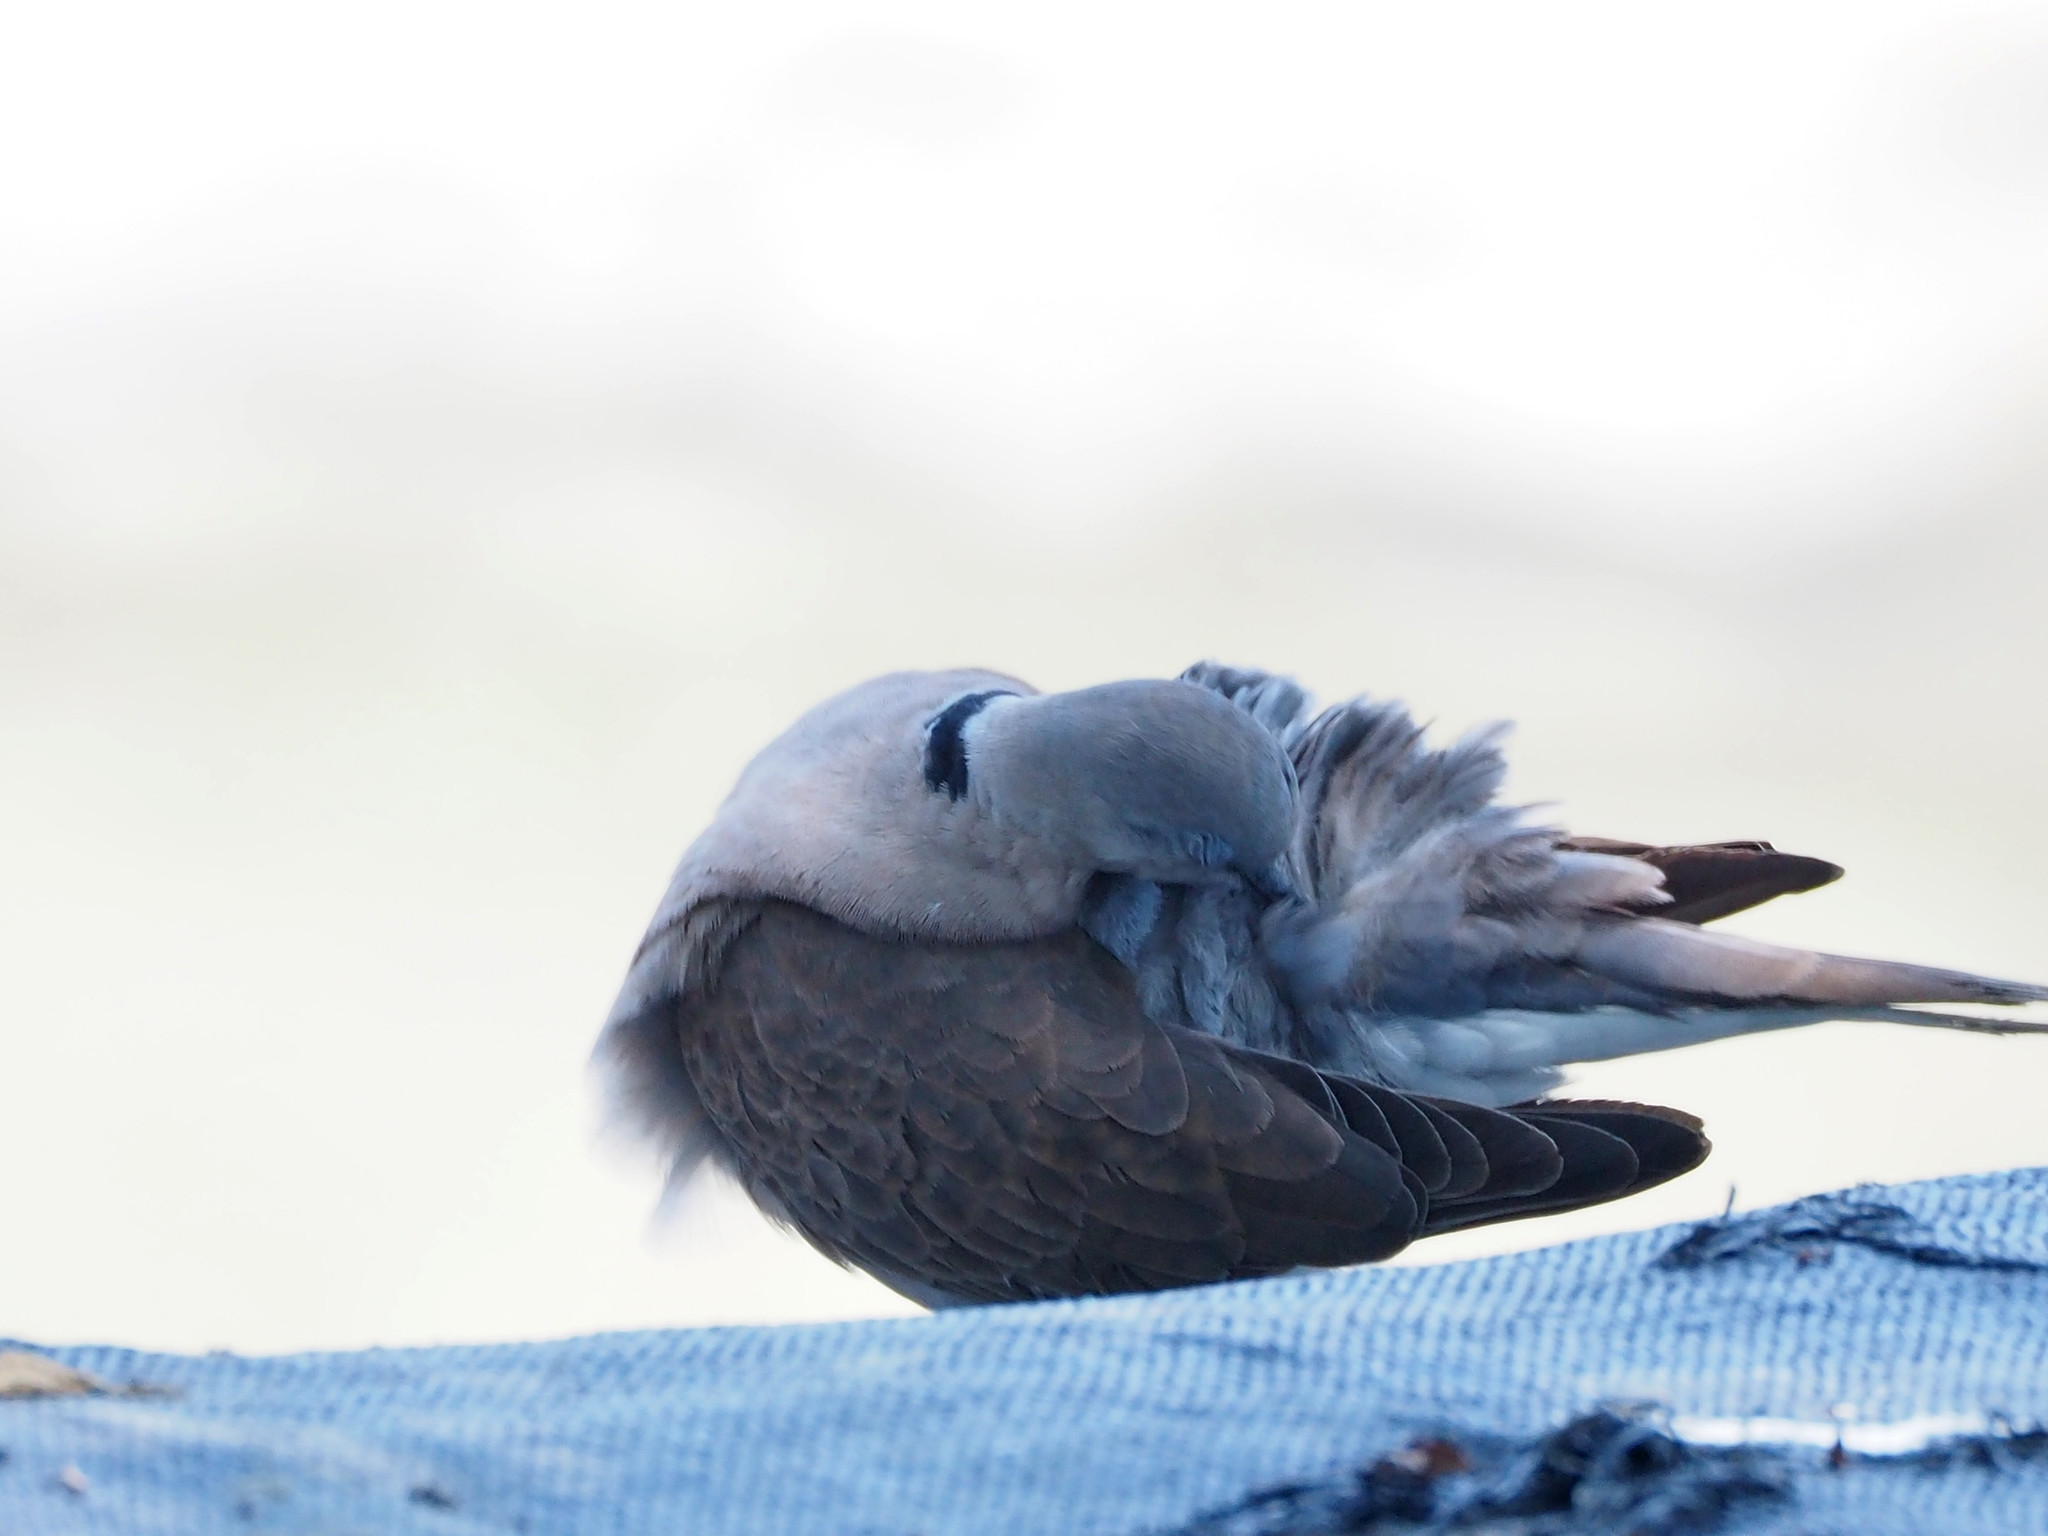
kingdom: Animalia
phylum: Chordata
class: Aves
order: Columbiformes
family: Columbidae
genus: Streptopelia
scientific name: Streptopelia tranquebarica
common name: Red turtle dove
